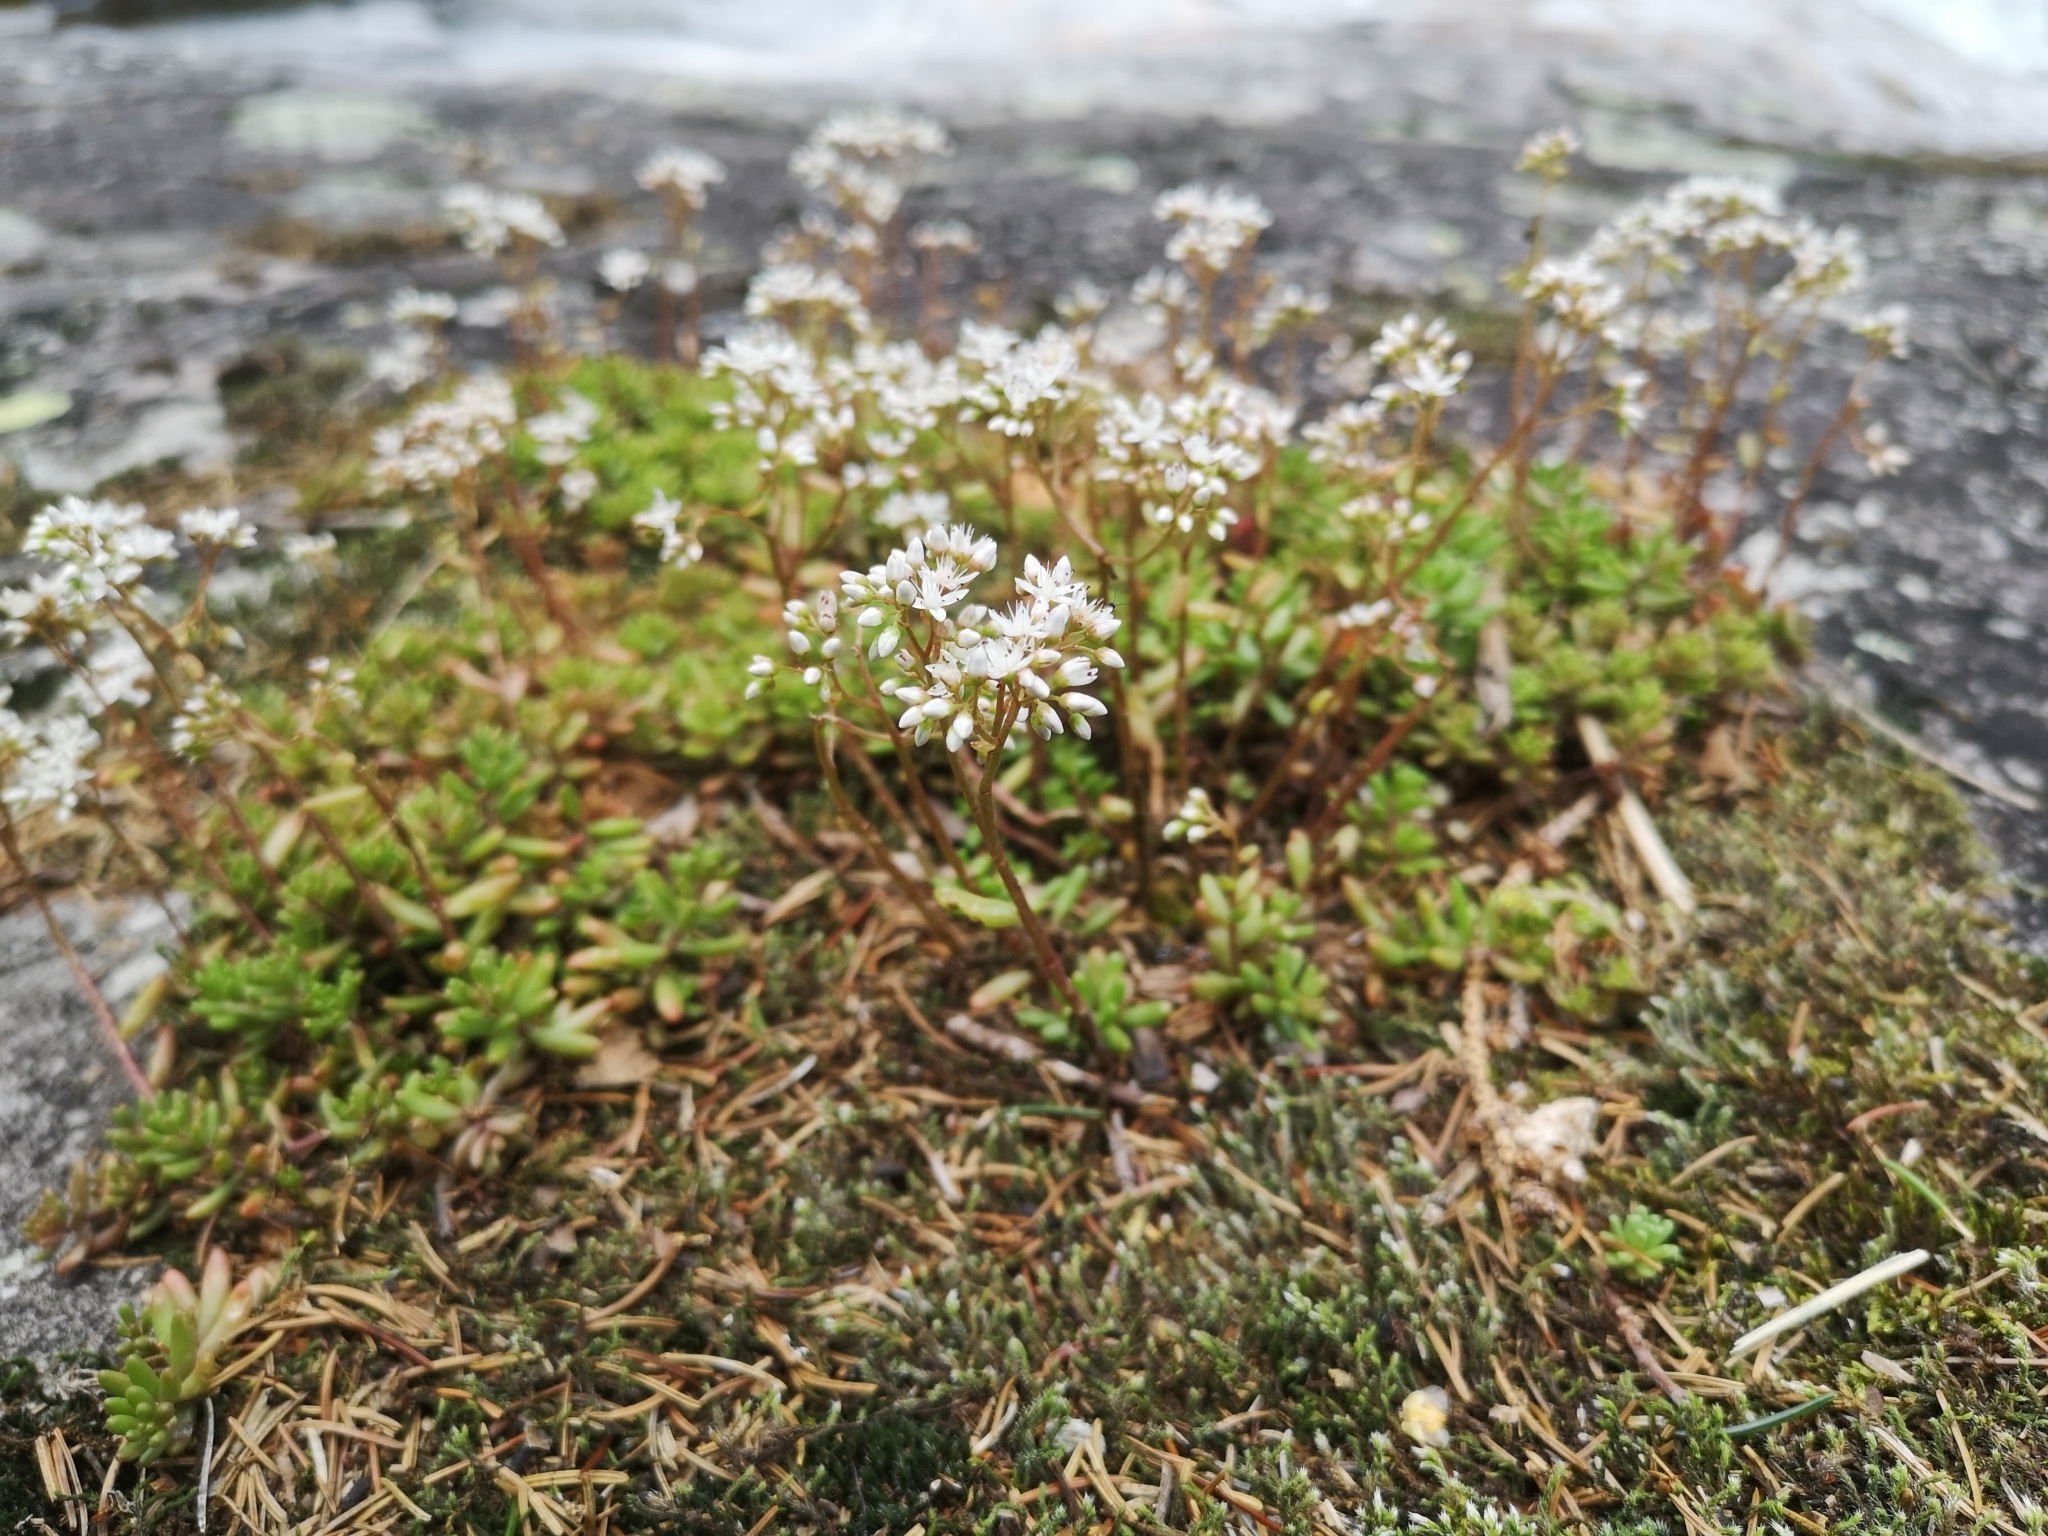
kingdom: Plantae
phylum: Tracheophyta
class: Magnoliopsida
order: Saxifragales
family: Crassulaceae
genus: Sedum
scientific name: Sedum album
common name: White stonecrop
